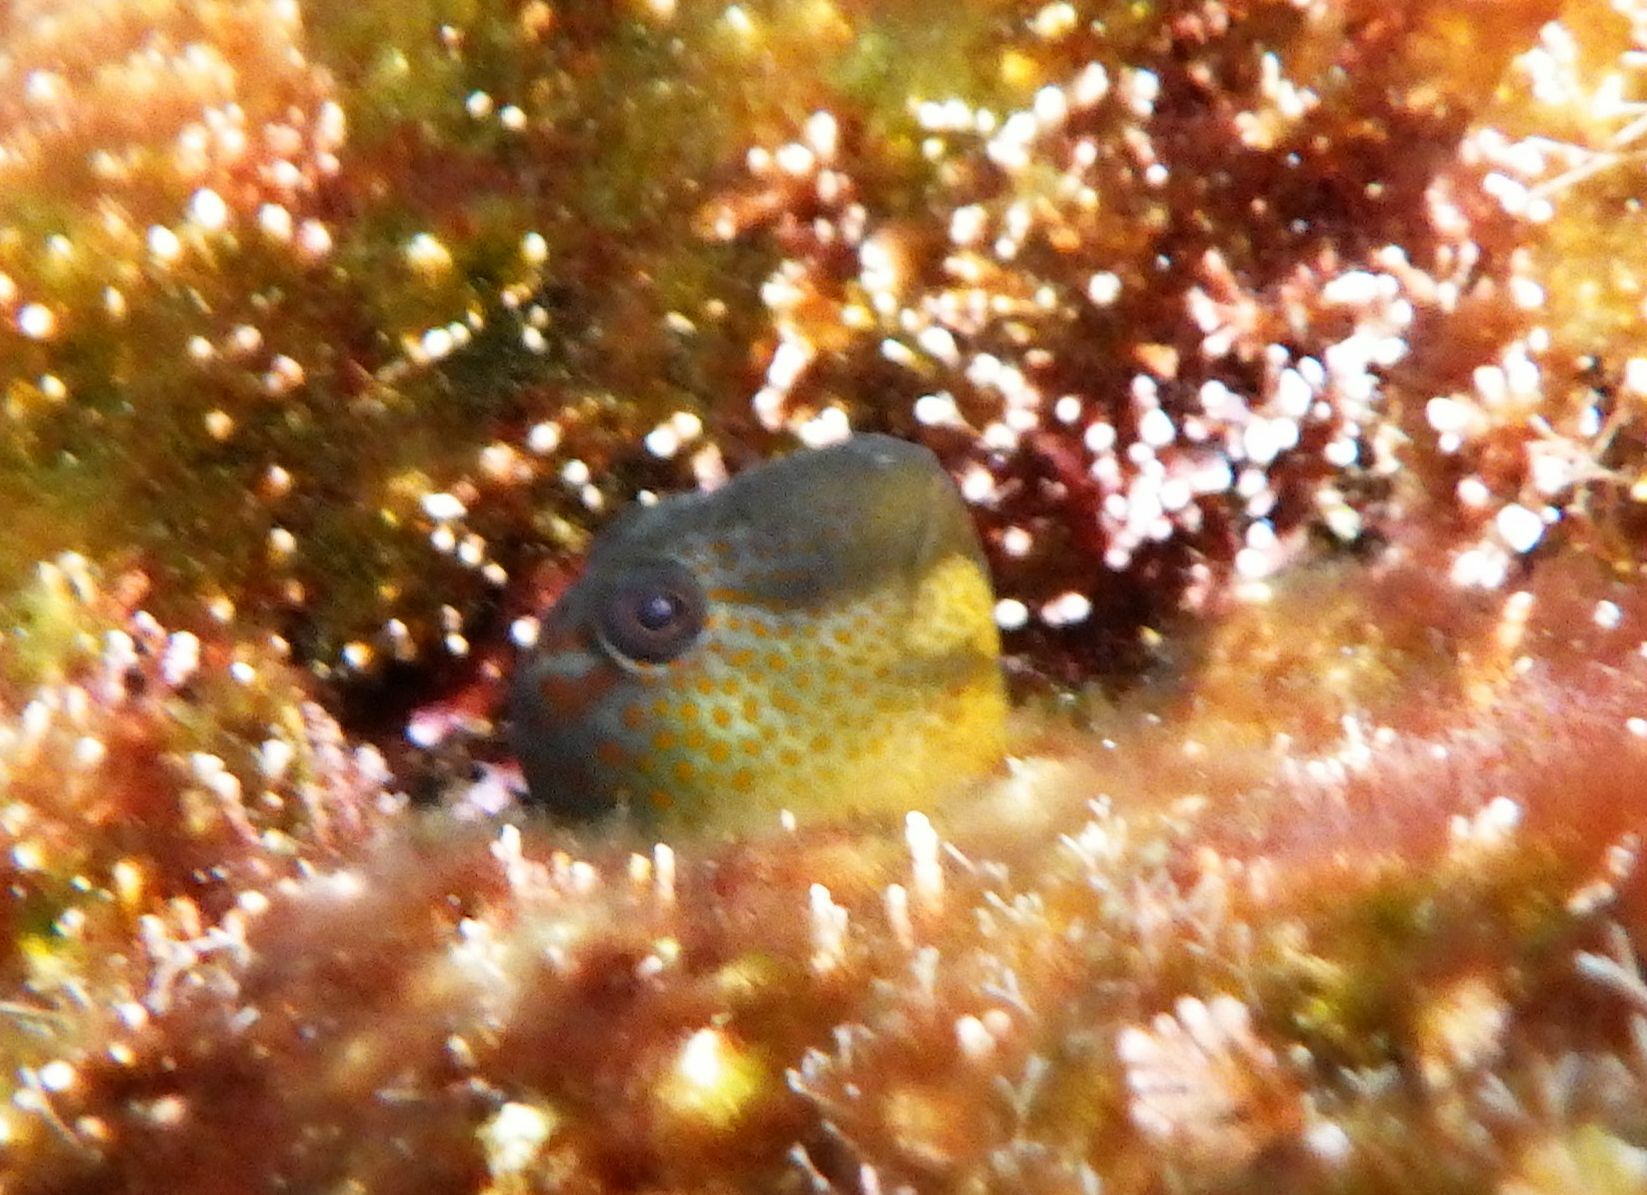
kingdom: Animalia
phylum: Chordata
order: Perciformes
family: Blenniidae
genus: Microlipophrys
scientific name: Microlipophrys canevae
